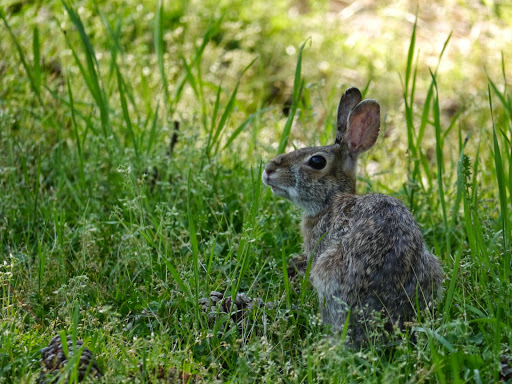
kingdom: Animalia
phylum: Chordata
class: Mammalia
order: Lagomorpha
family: Leporidae
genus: Sylvilagus
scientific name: Sylvilagus floridanus
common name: Eastern cottontail
